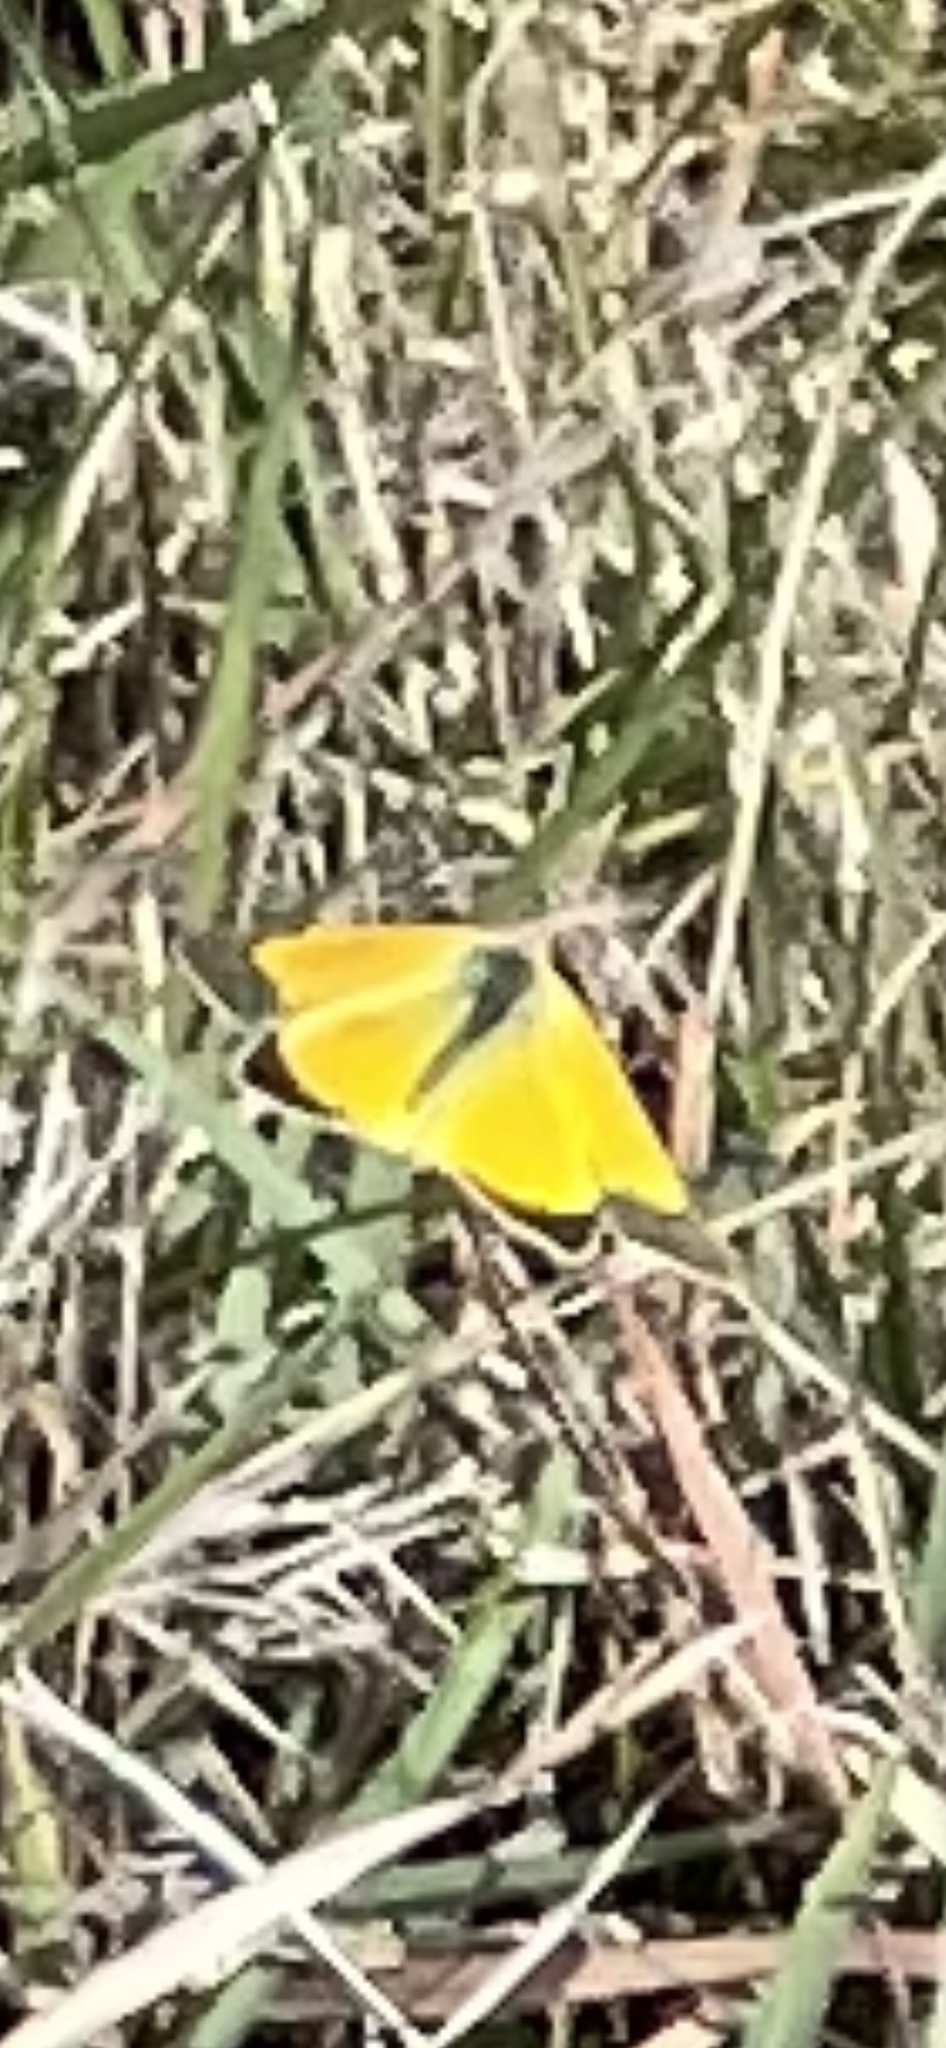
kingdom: Animalia
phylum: Arthropoda
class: Insecta
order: Lepidoptera
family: Pieridae
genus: Colias
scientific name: Colias eurytheme
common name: Alfalfa butterfly
